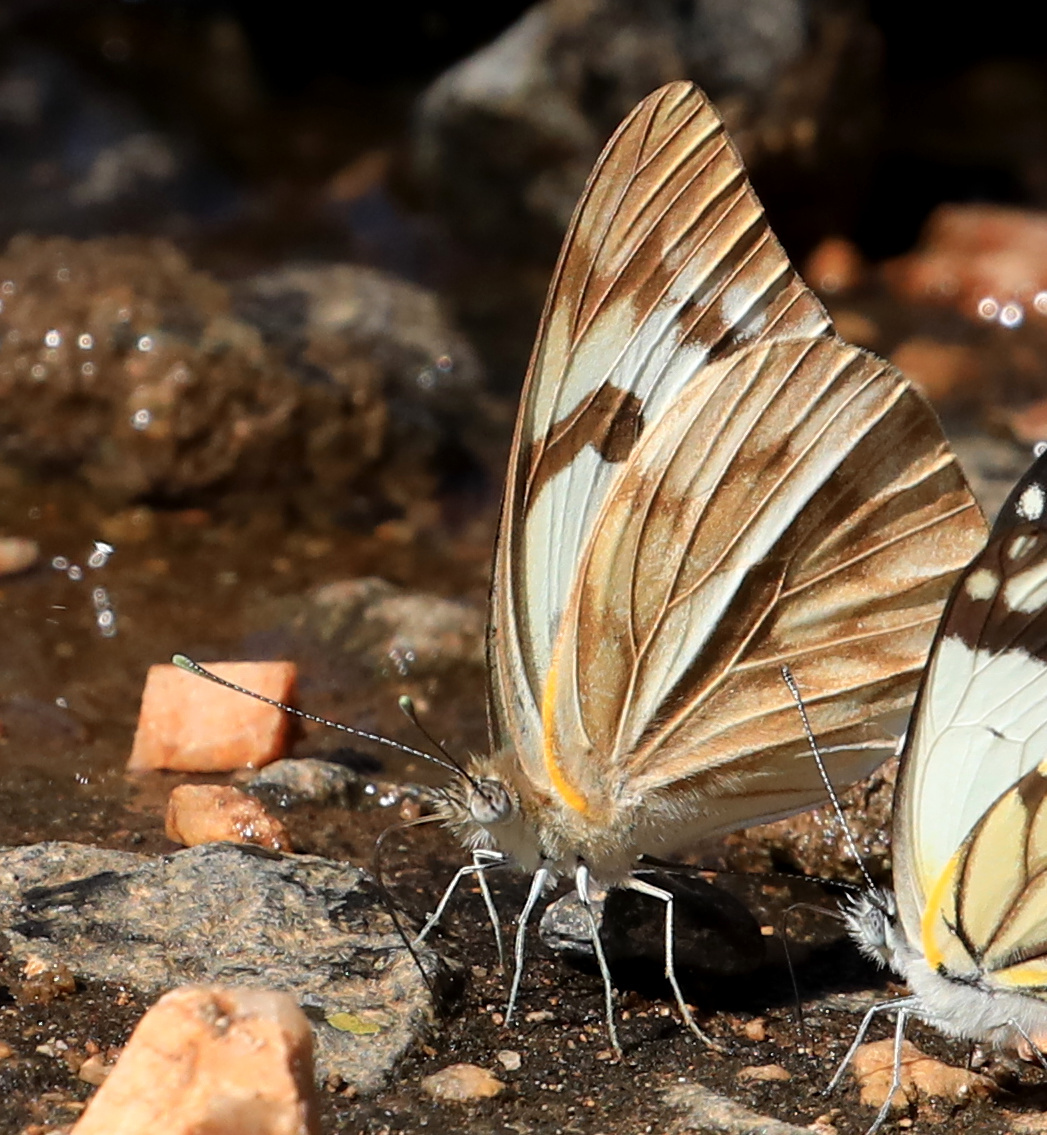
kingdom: Animalia
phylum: Arthropoda
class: Insecta
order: Lepidoptera
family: Pieridae
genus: Belenois
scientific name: Belenois gidica
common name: Pointed caper white
